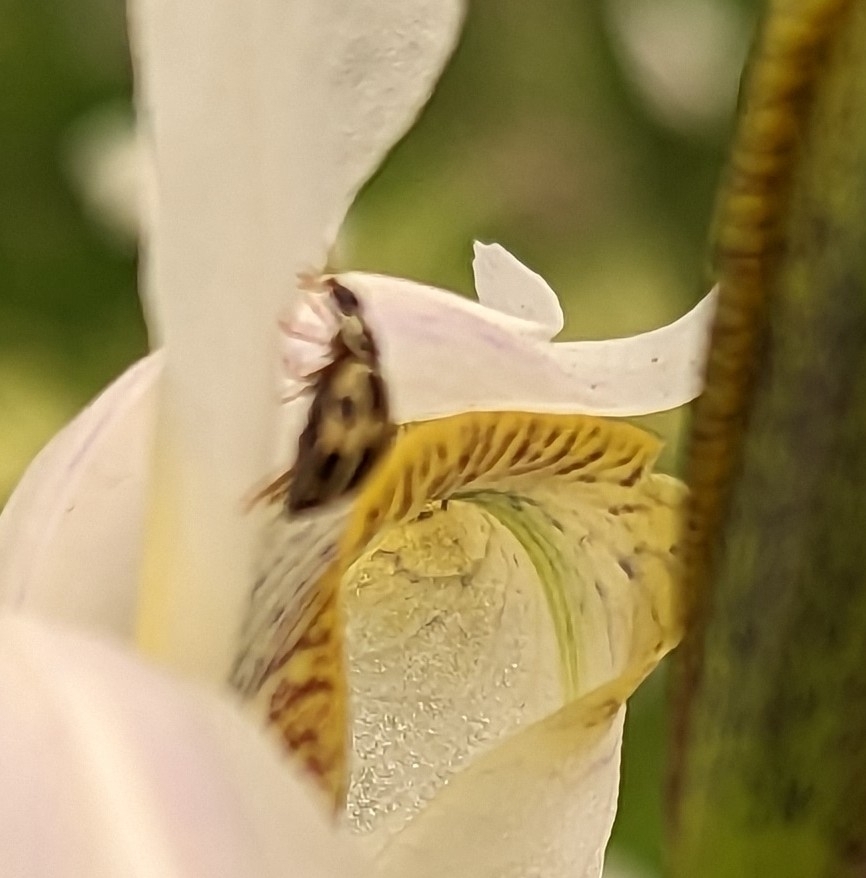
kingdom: Animalia
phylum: Arthropoda
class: Insecta
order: Coleoptera
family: Coccinellidae
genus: Propylaea
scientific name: Propylaea quatuordecimpunctata
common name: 14-spotted ladybird beetle
